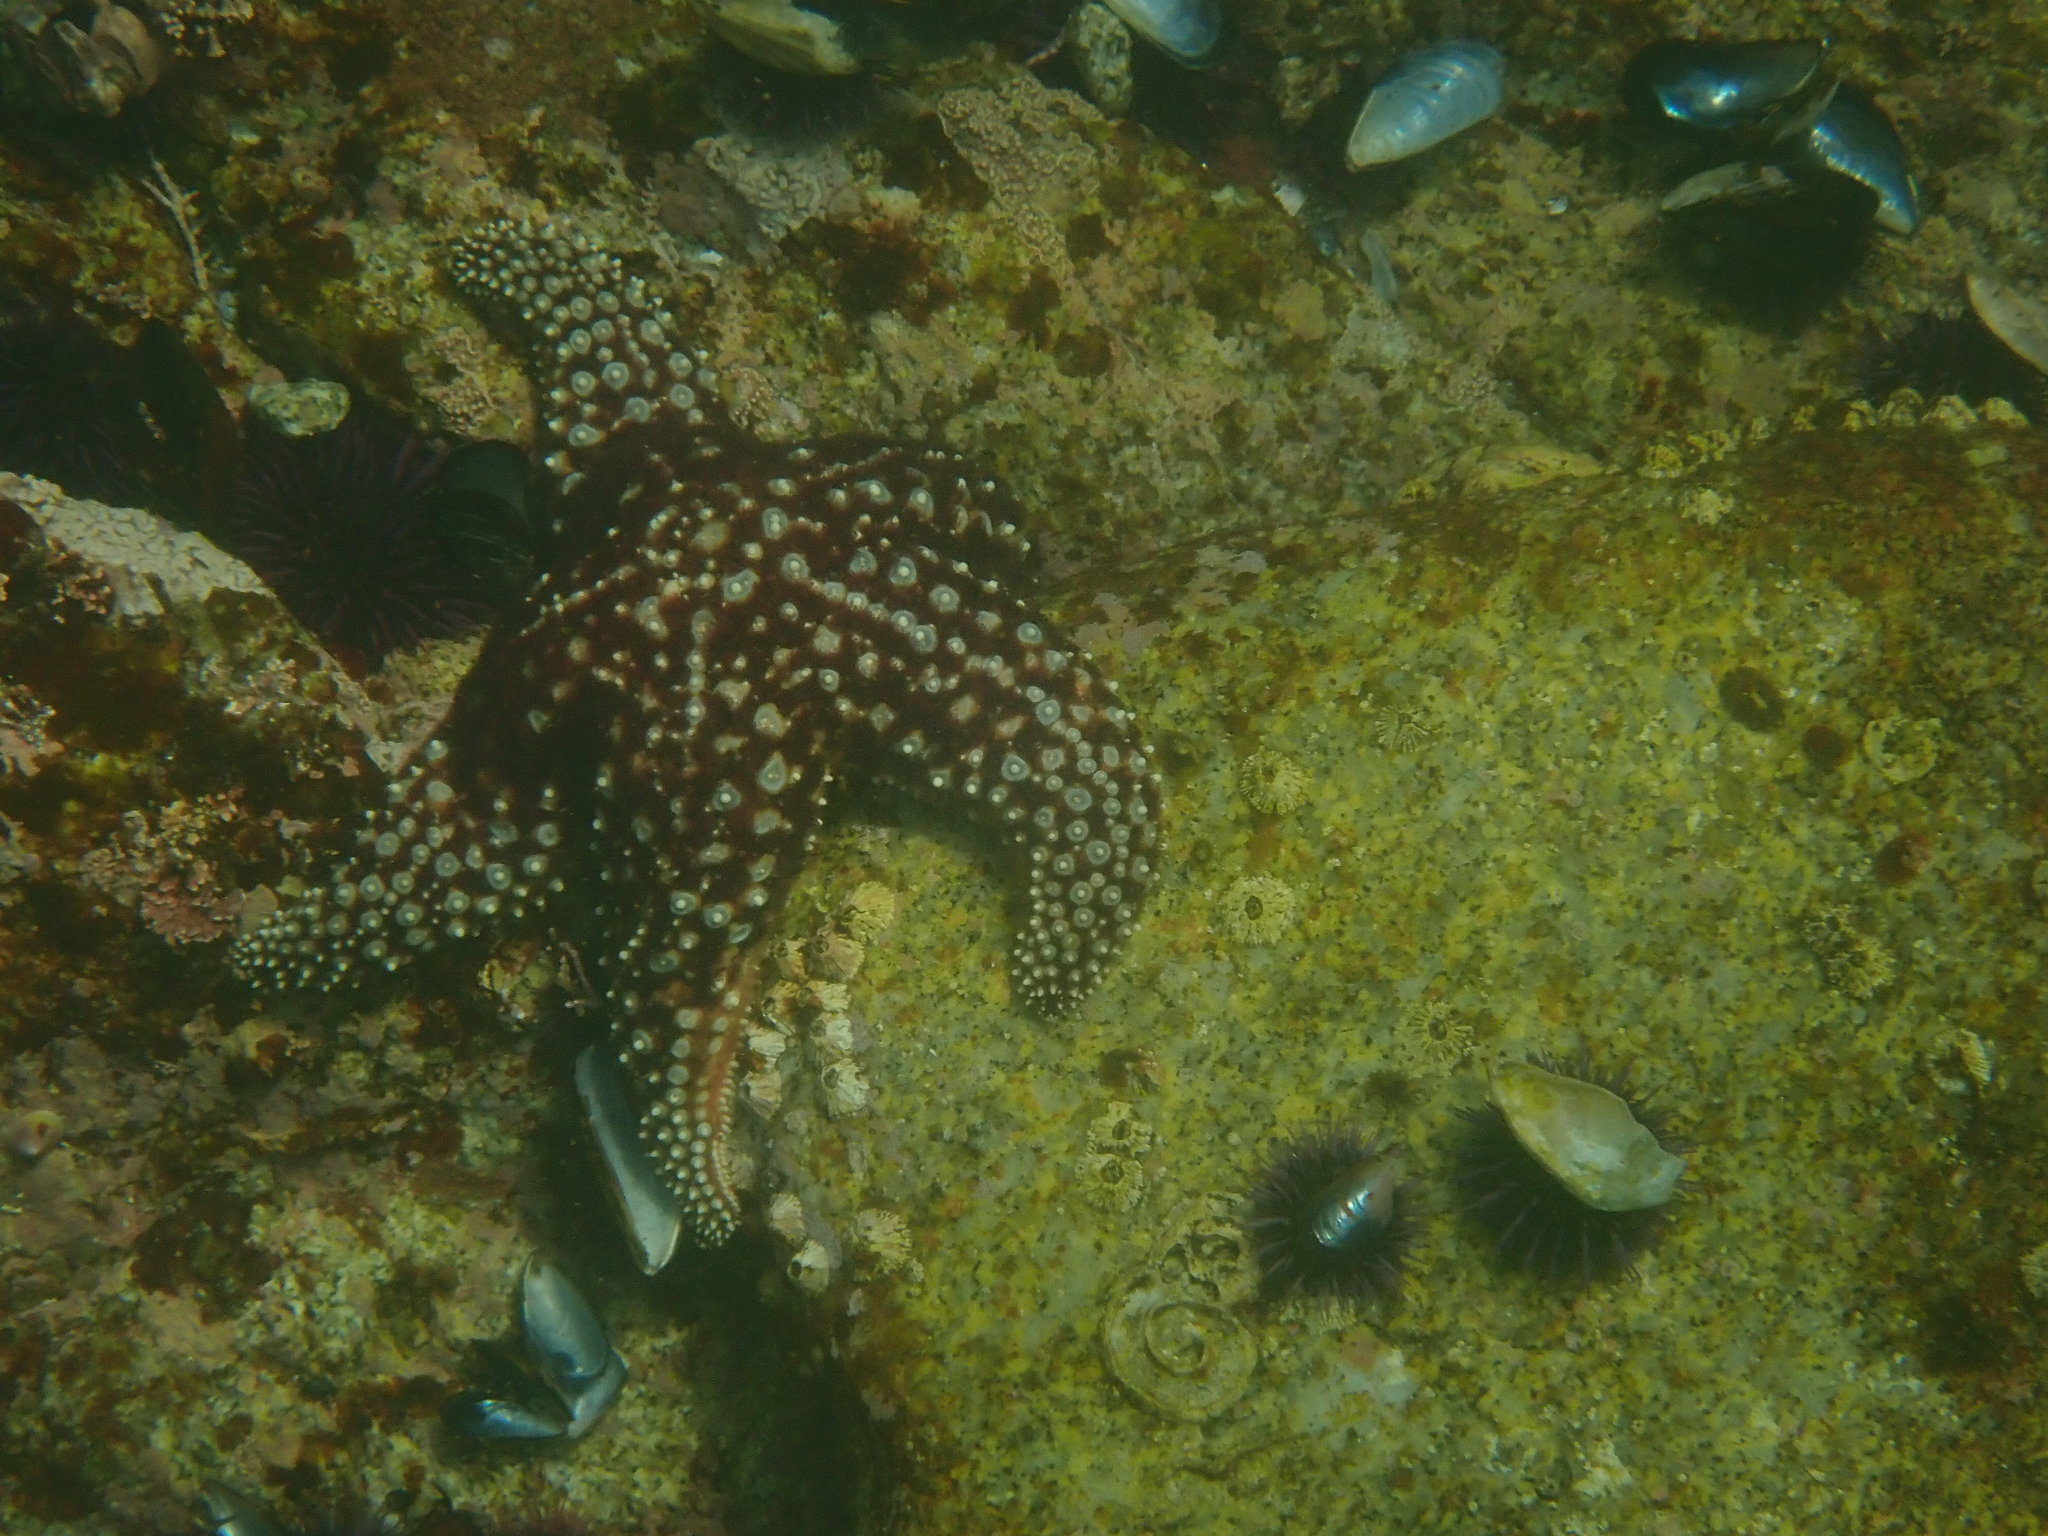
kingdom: Animalia
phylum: Echinodermata
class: Asteroidea
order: Forcipulatida
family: Asteriidae
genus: Pisaster
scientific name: Pisaster giganteus
